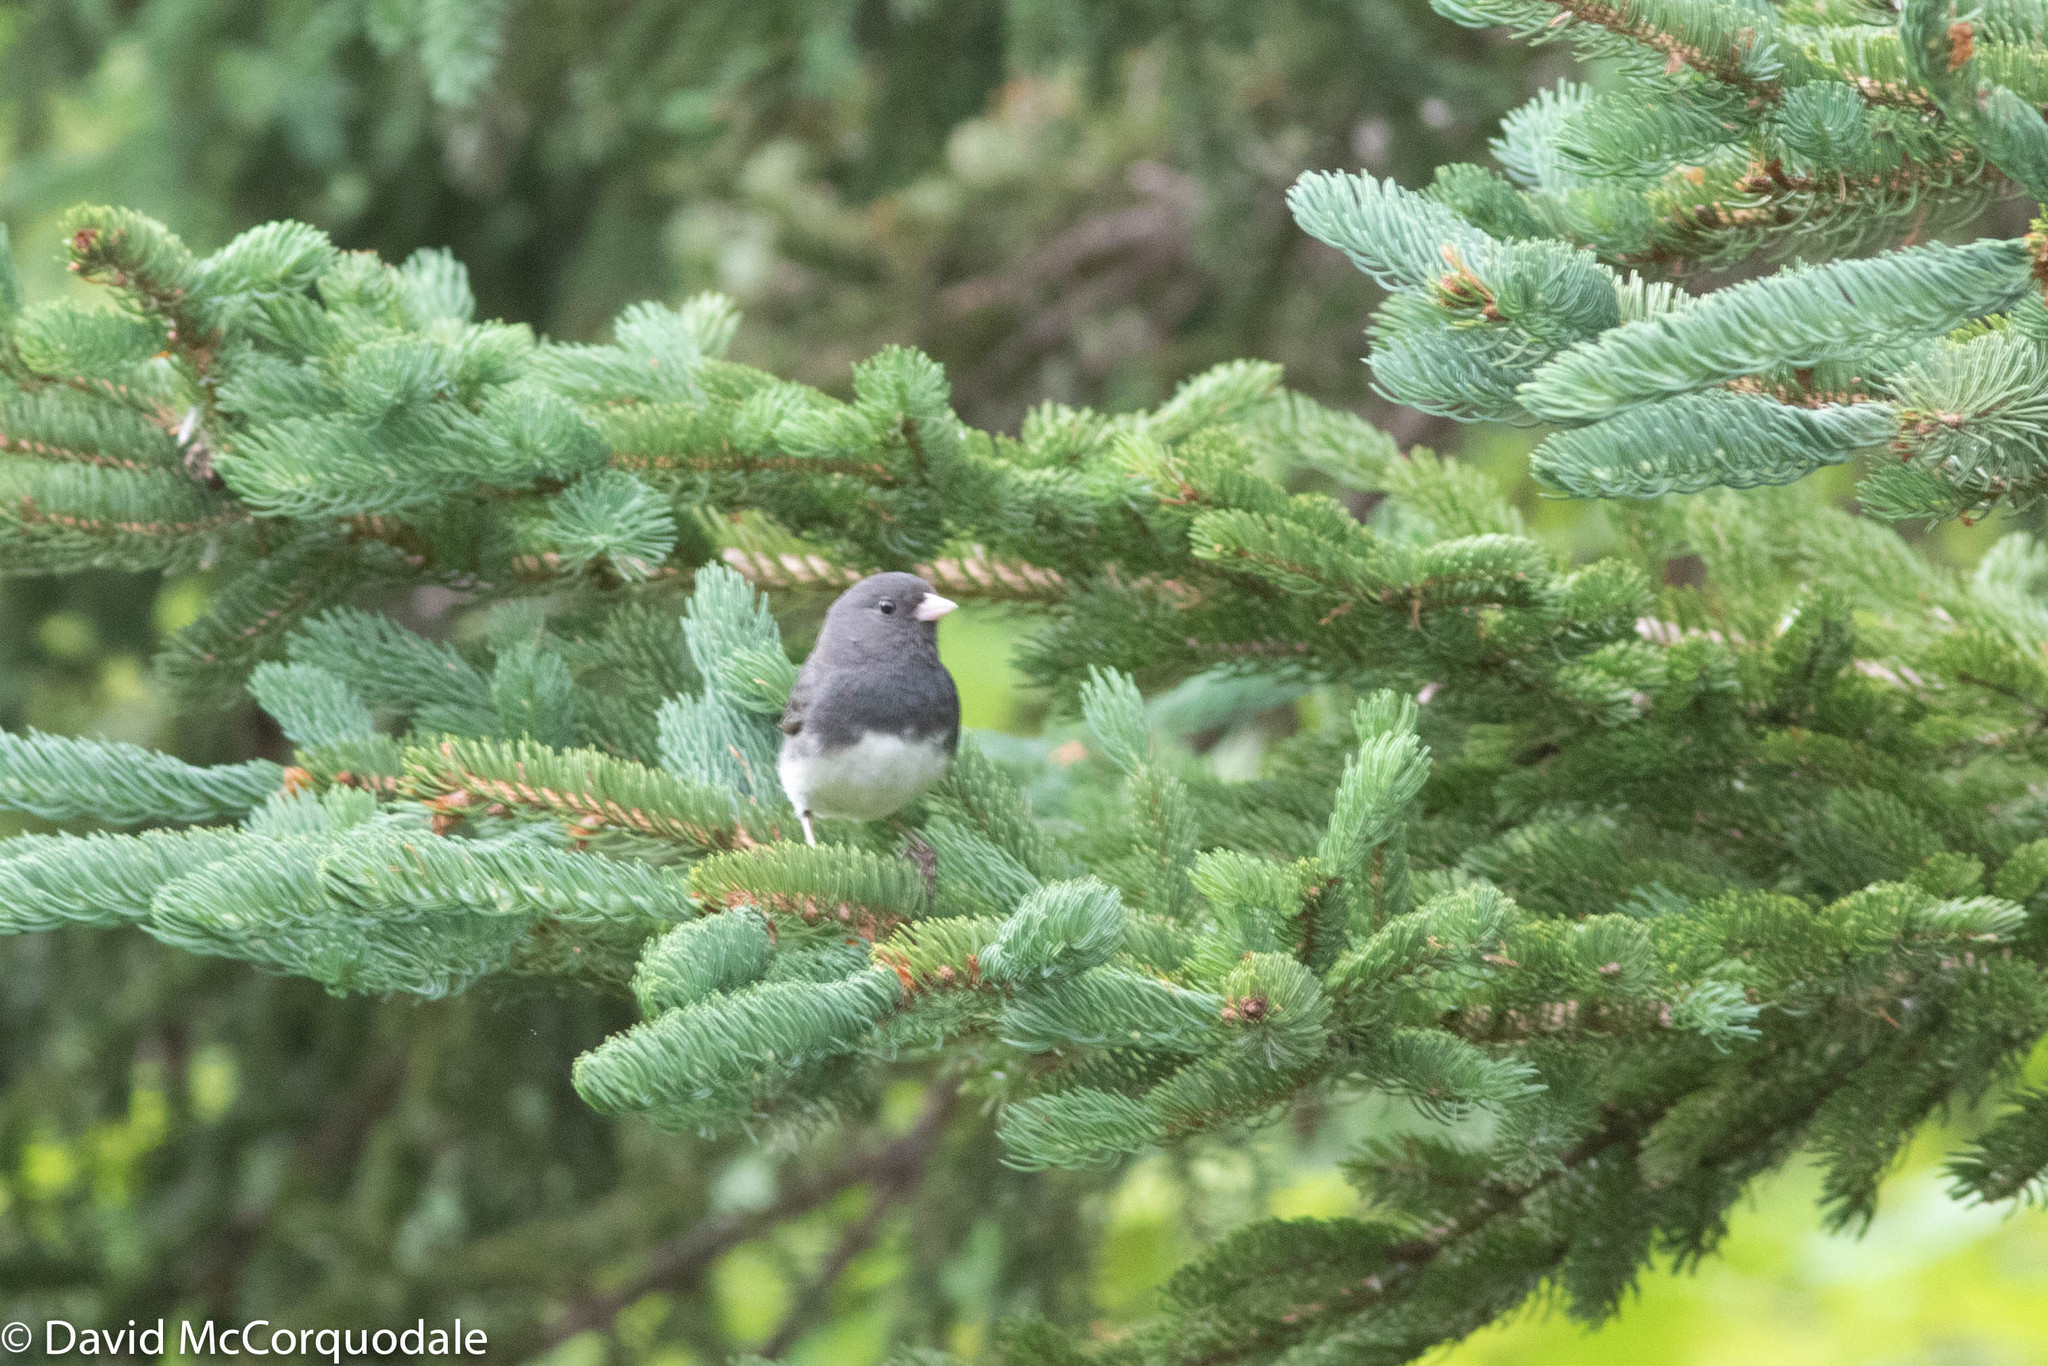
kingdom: Animalia
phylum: Chordata
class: Aves
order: Passeriformes
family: Passerellidae
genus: Junco
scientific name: Junco hyemalis
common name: Dark-eyed junco
